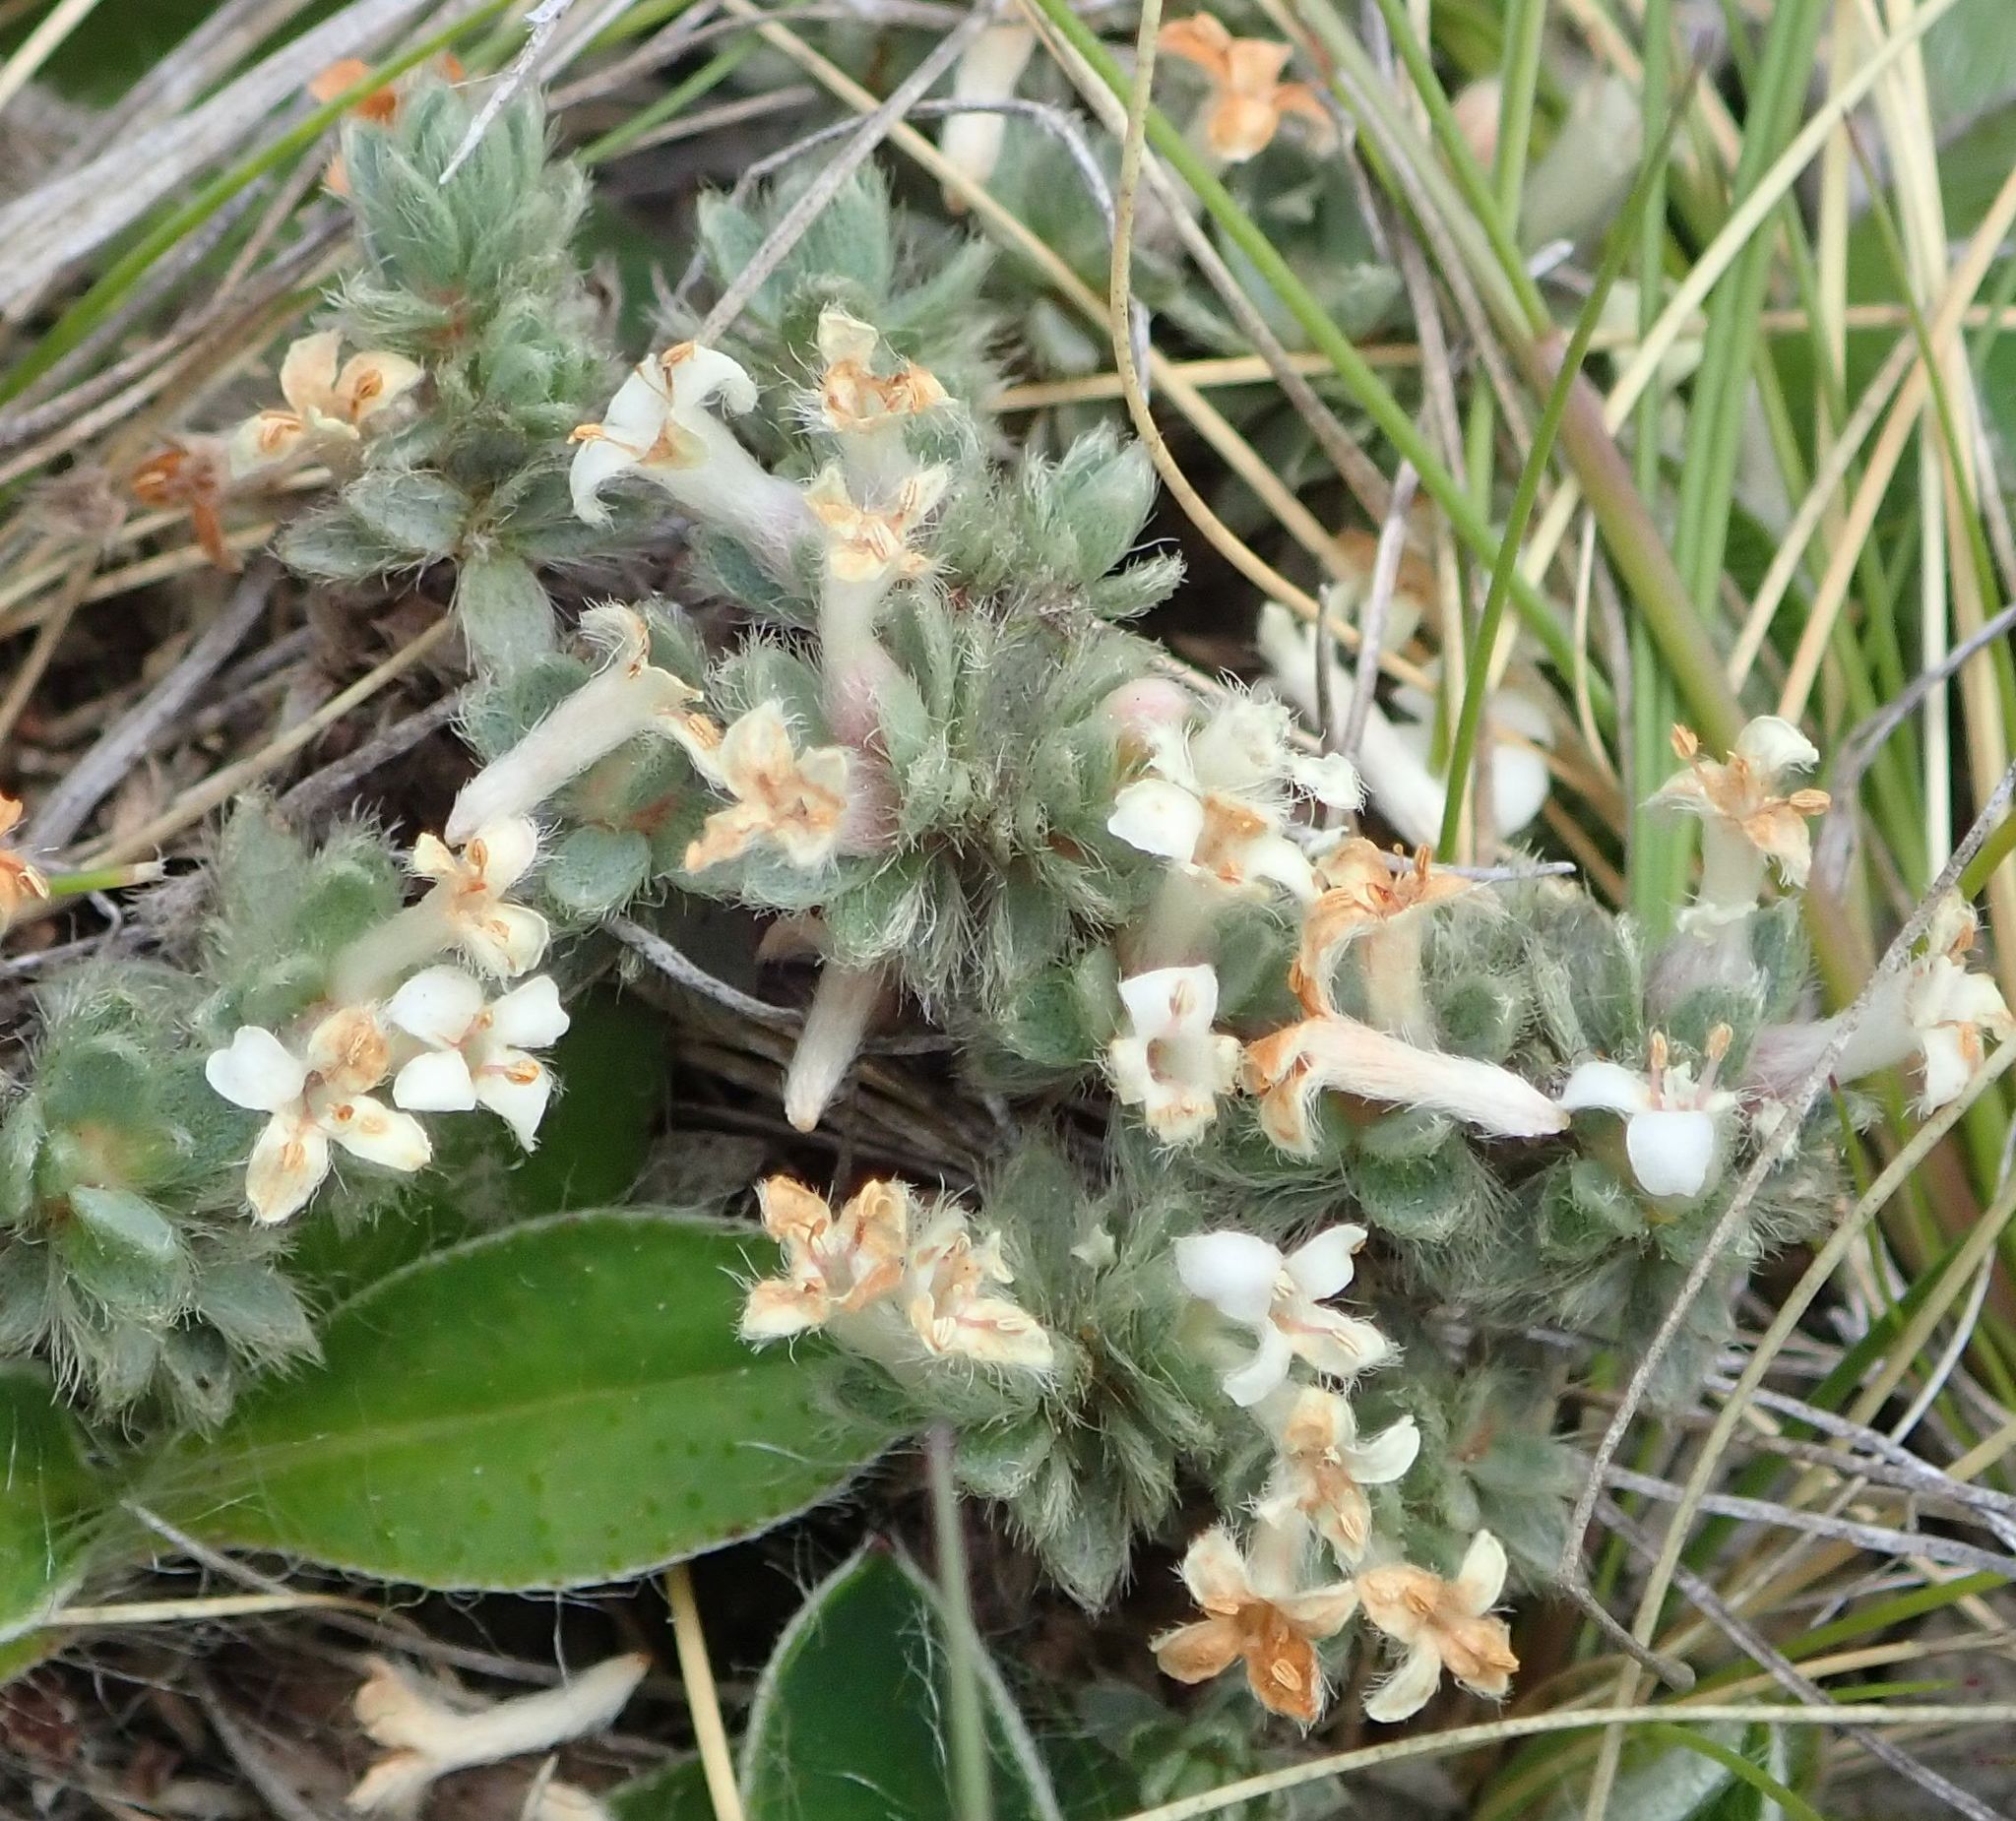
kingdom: Plantae
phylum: Tracheophyta
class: Magnoliopsida
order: Malvales
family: Thymelaeaceae
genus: Pimelea
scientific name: Pimelea sericeovillosa
